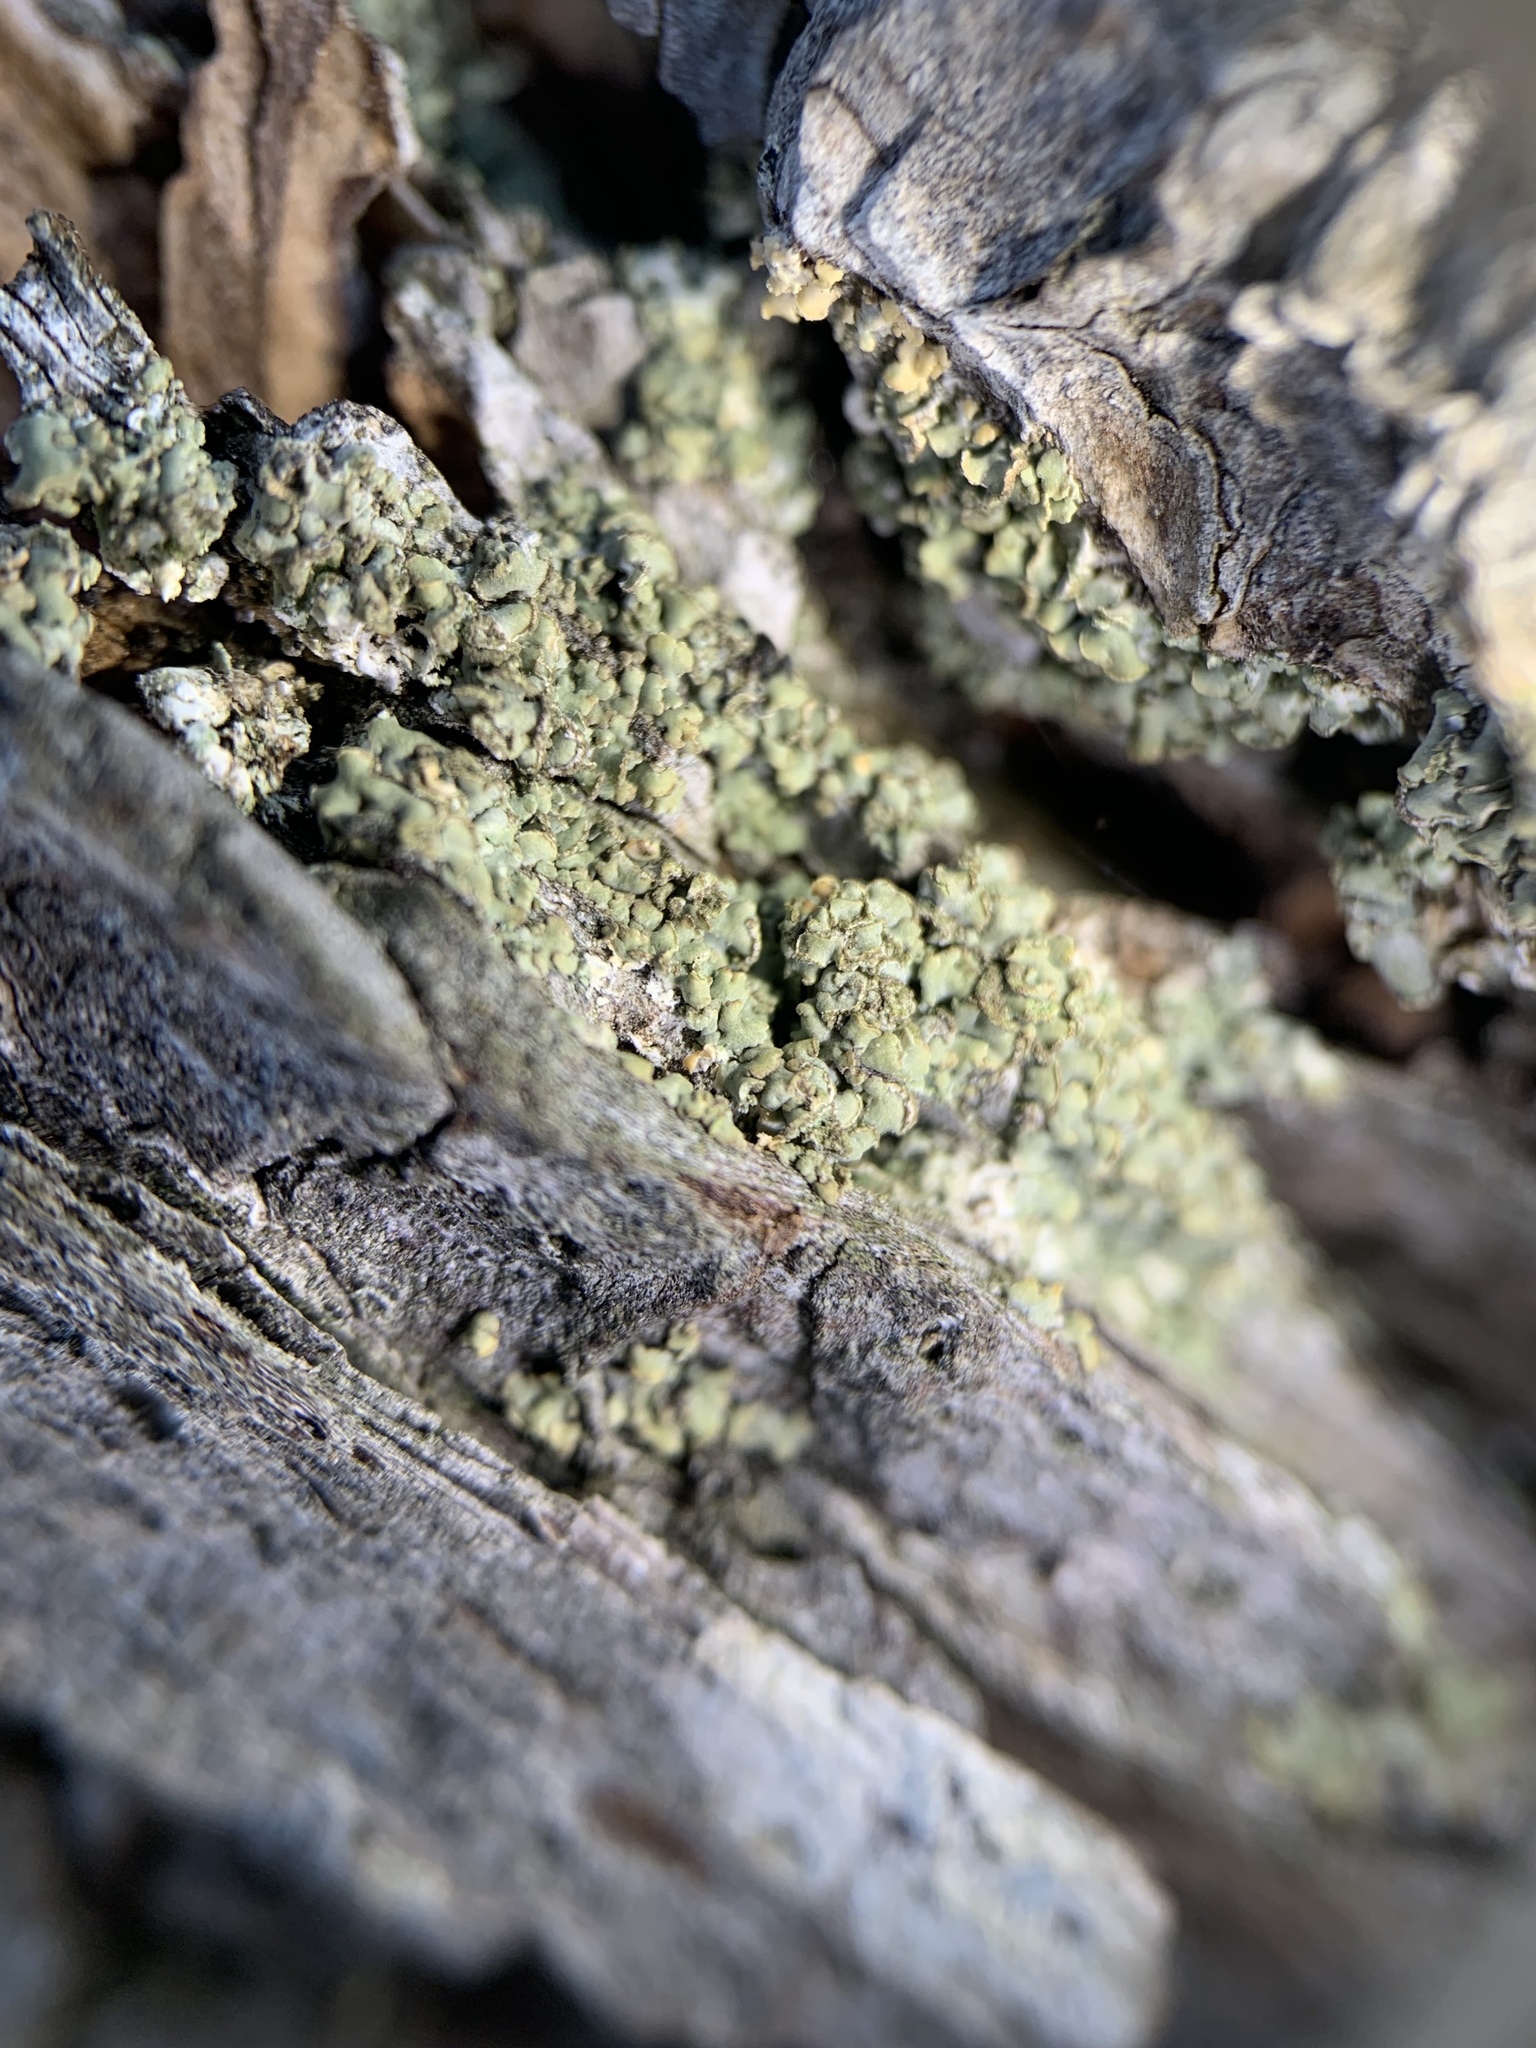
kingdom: Fungi
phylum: Ascomycota
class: Lecanoromycetes
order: Umbilicariales
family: Ophioparmaceae
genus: Hypocenomyce
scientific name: Hypocenomyce scalaris
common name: Common clam lichen
